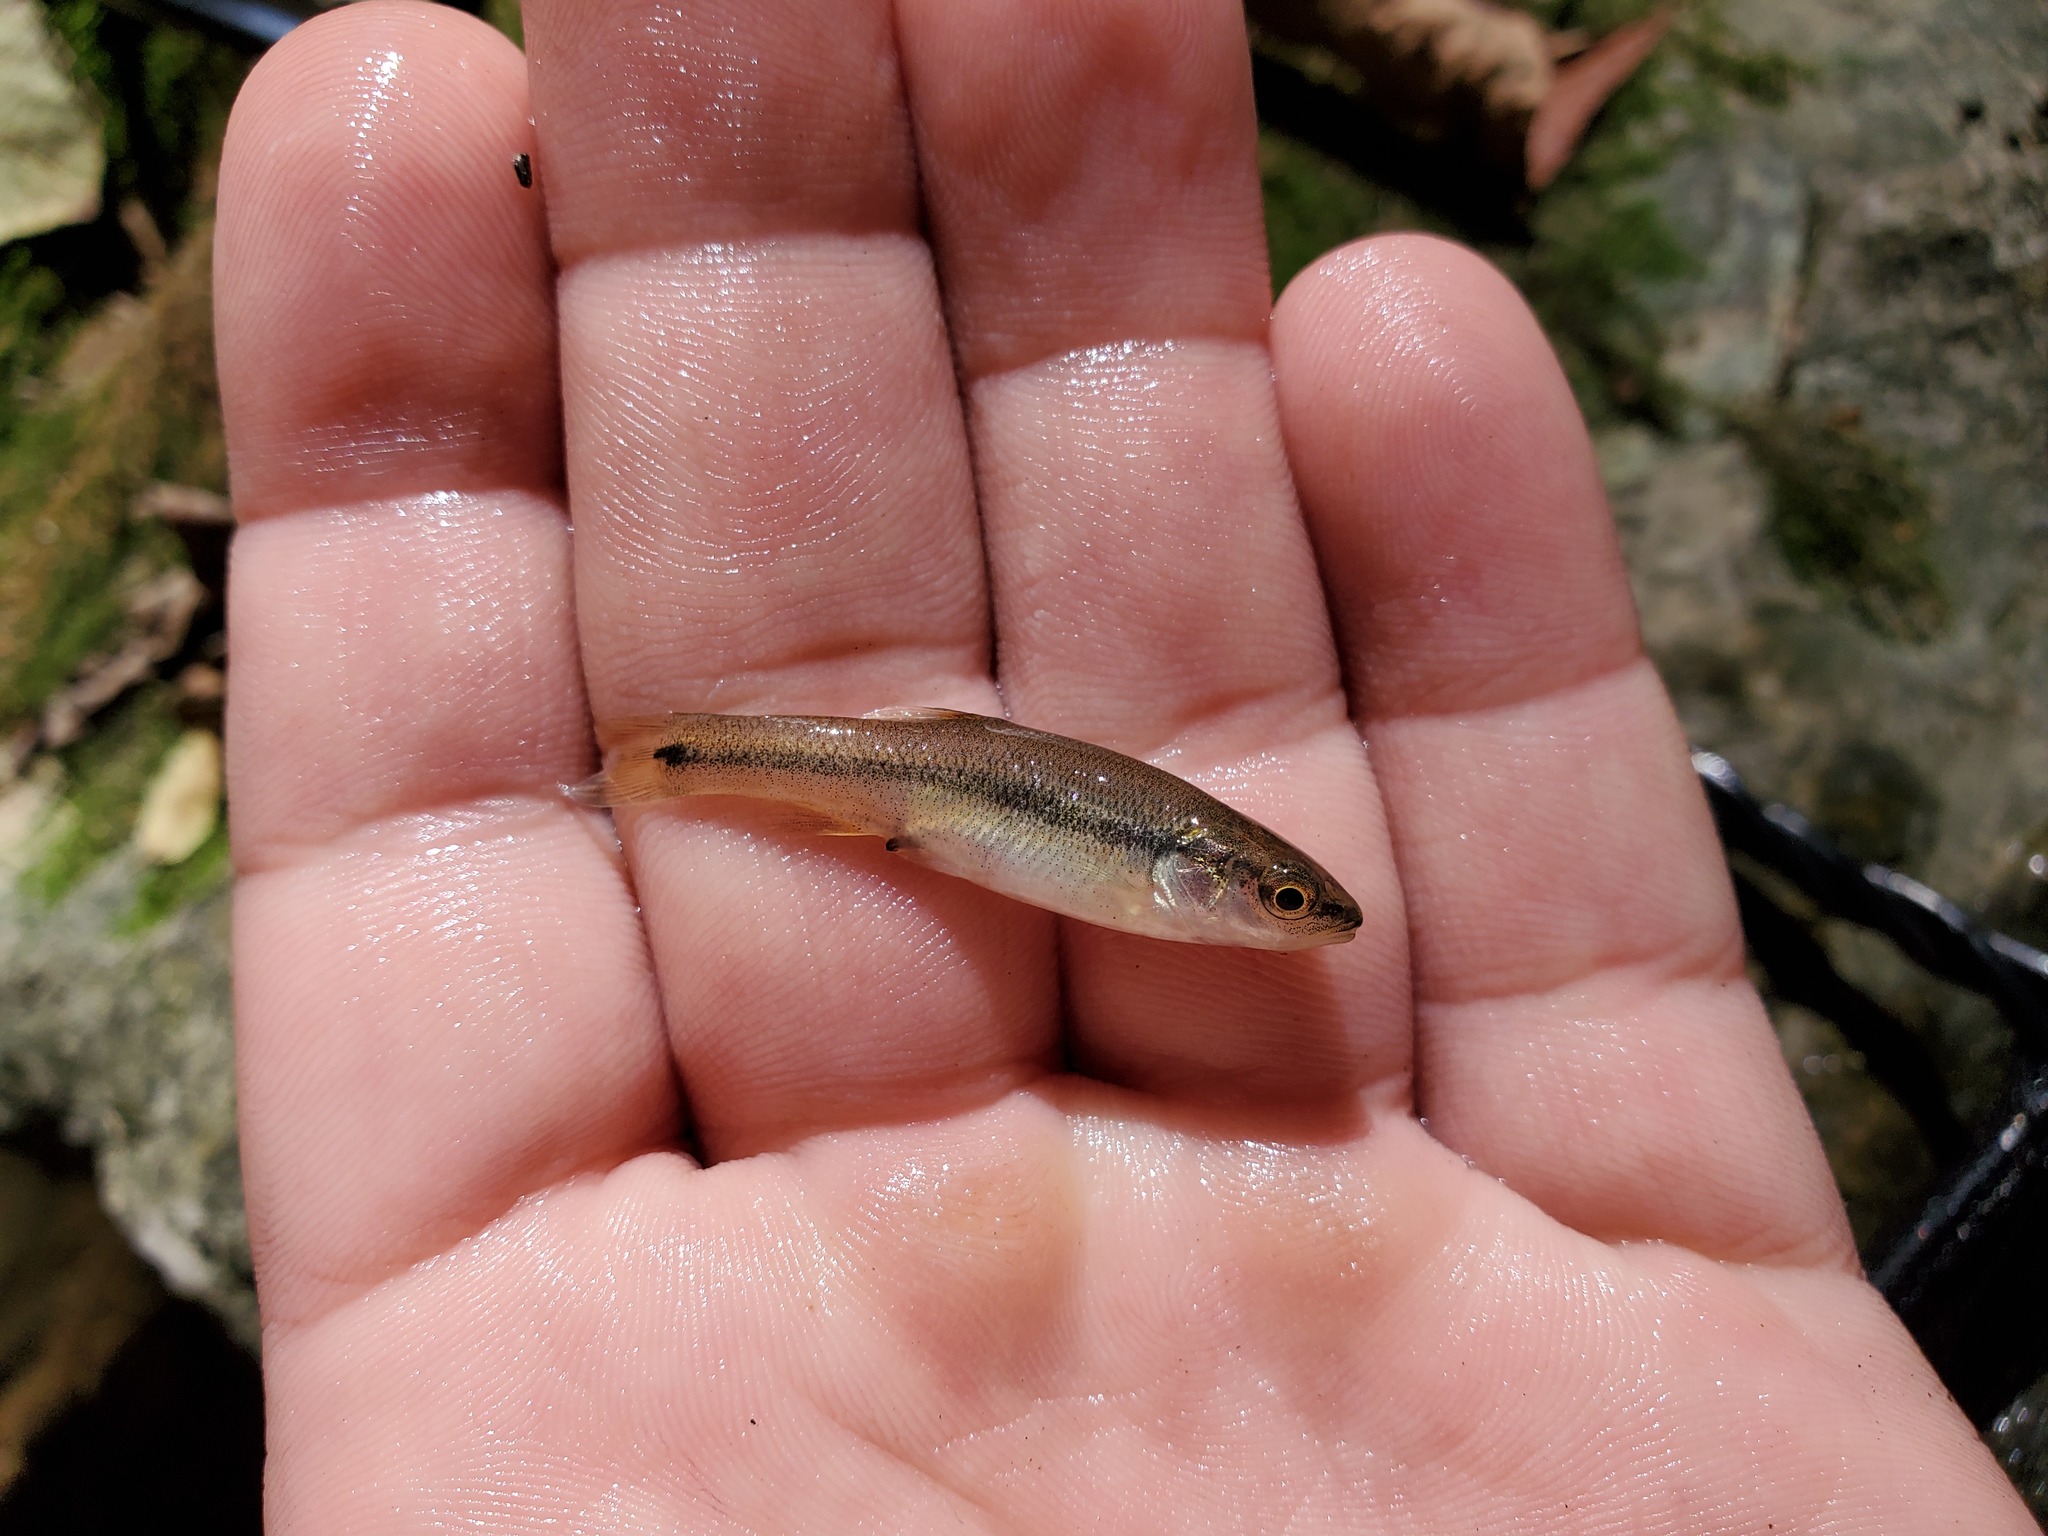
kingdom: Animalia
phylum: Chordata
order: Cypriniformes
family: Cyprinidae
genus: Semotilus
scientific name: Semotilus atromaculatus
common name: Creek chub
